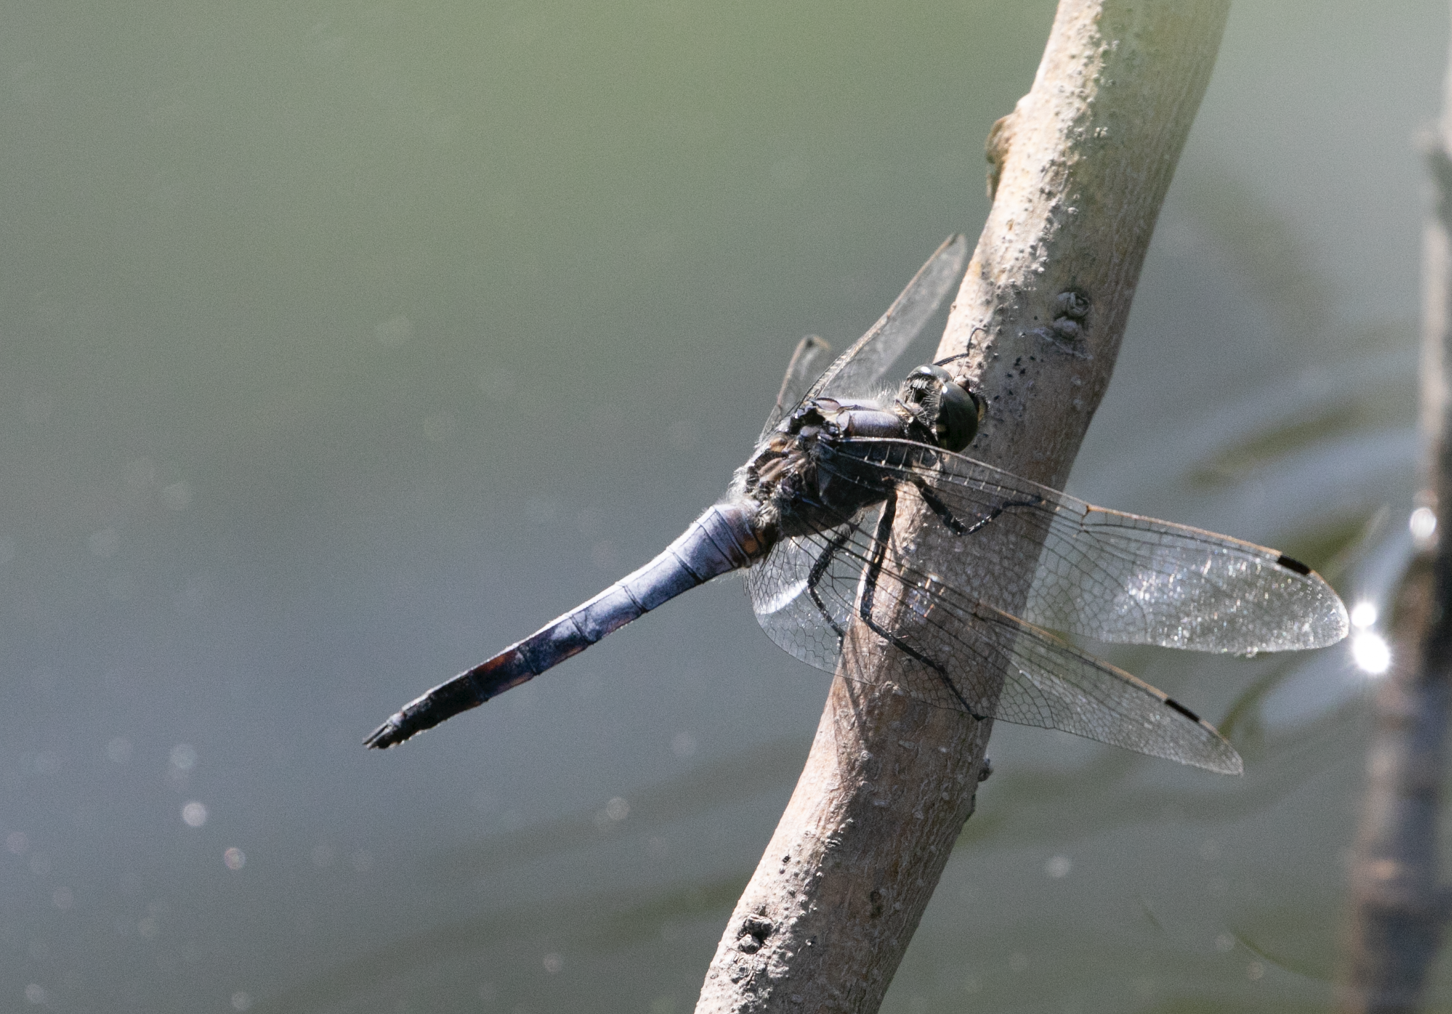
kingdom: Animalia
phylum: Arthropoda
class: Insecta
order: Odonata
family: Libellulidae
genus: Orthetrum
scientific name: Orthetrum cancellatum
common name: Black-tailed skimmer
